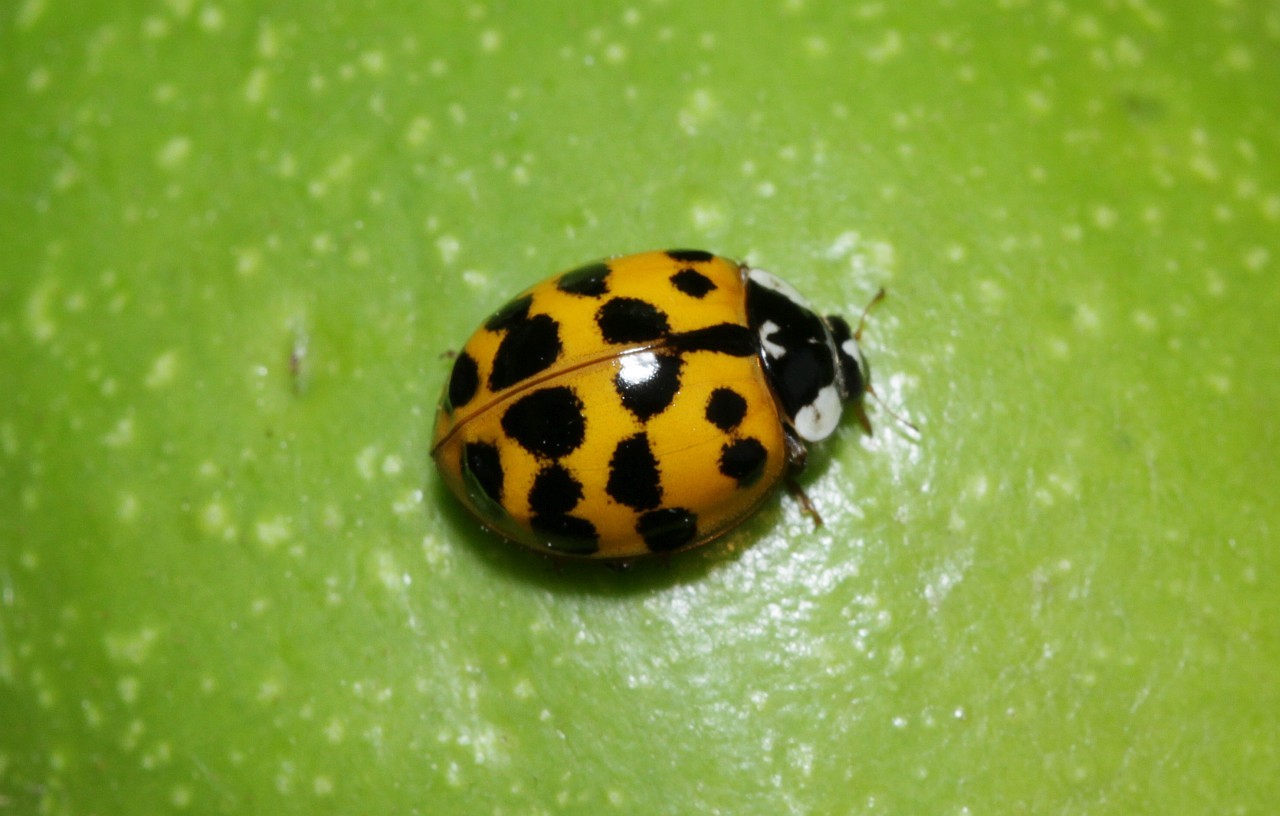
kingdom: Animalia
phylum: Arthropoda
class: Insecta
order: Coleoptera
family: Coccinellidae
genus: Harmonia
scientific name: Harmonia axyridis
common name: Harlequin ladybird
